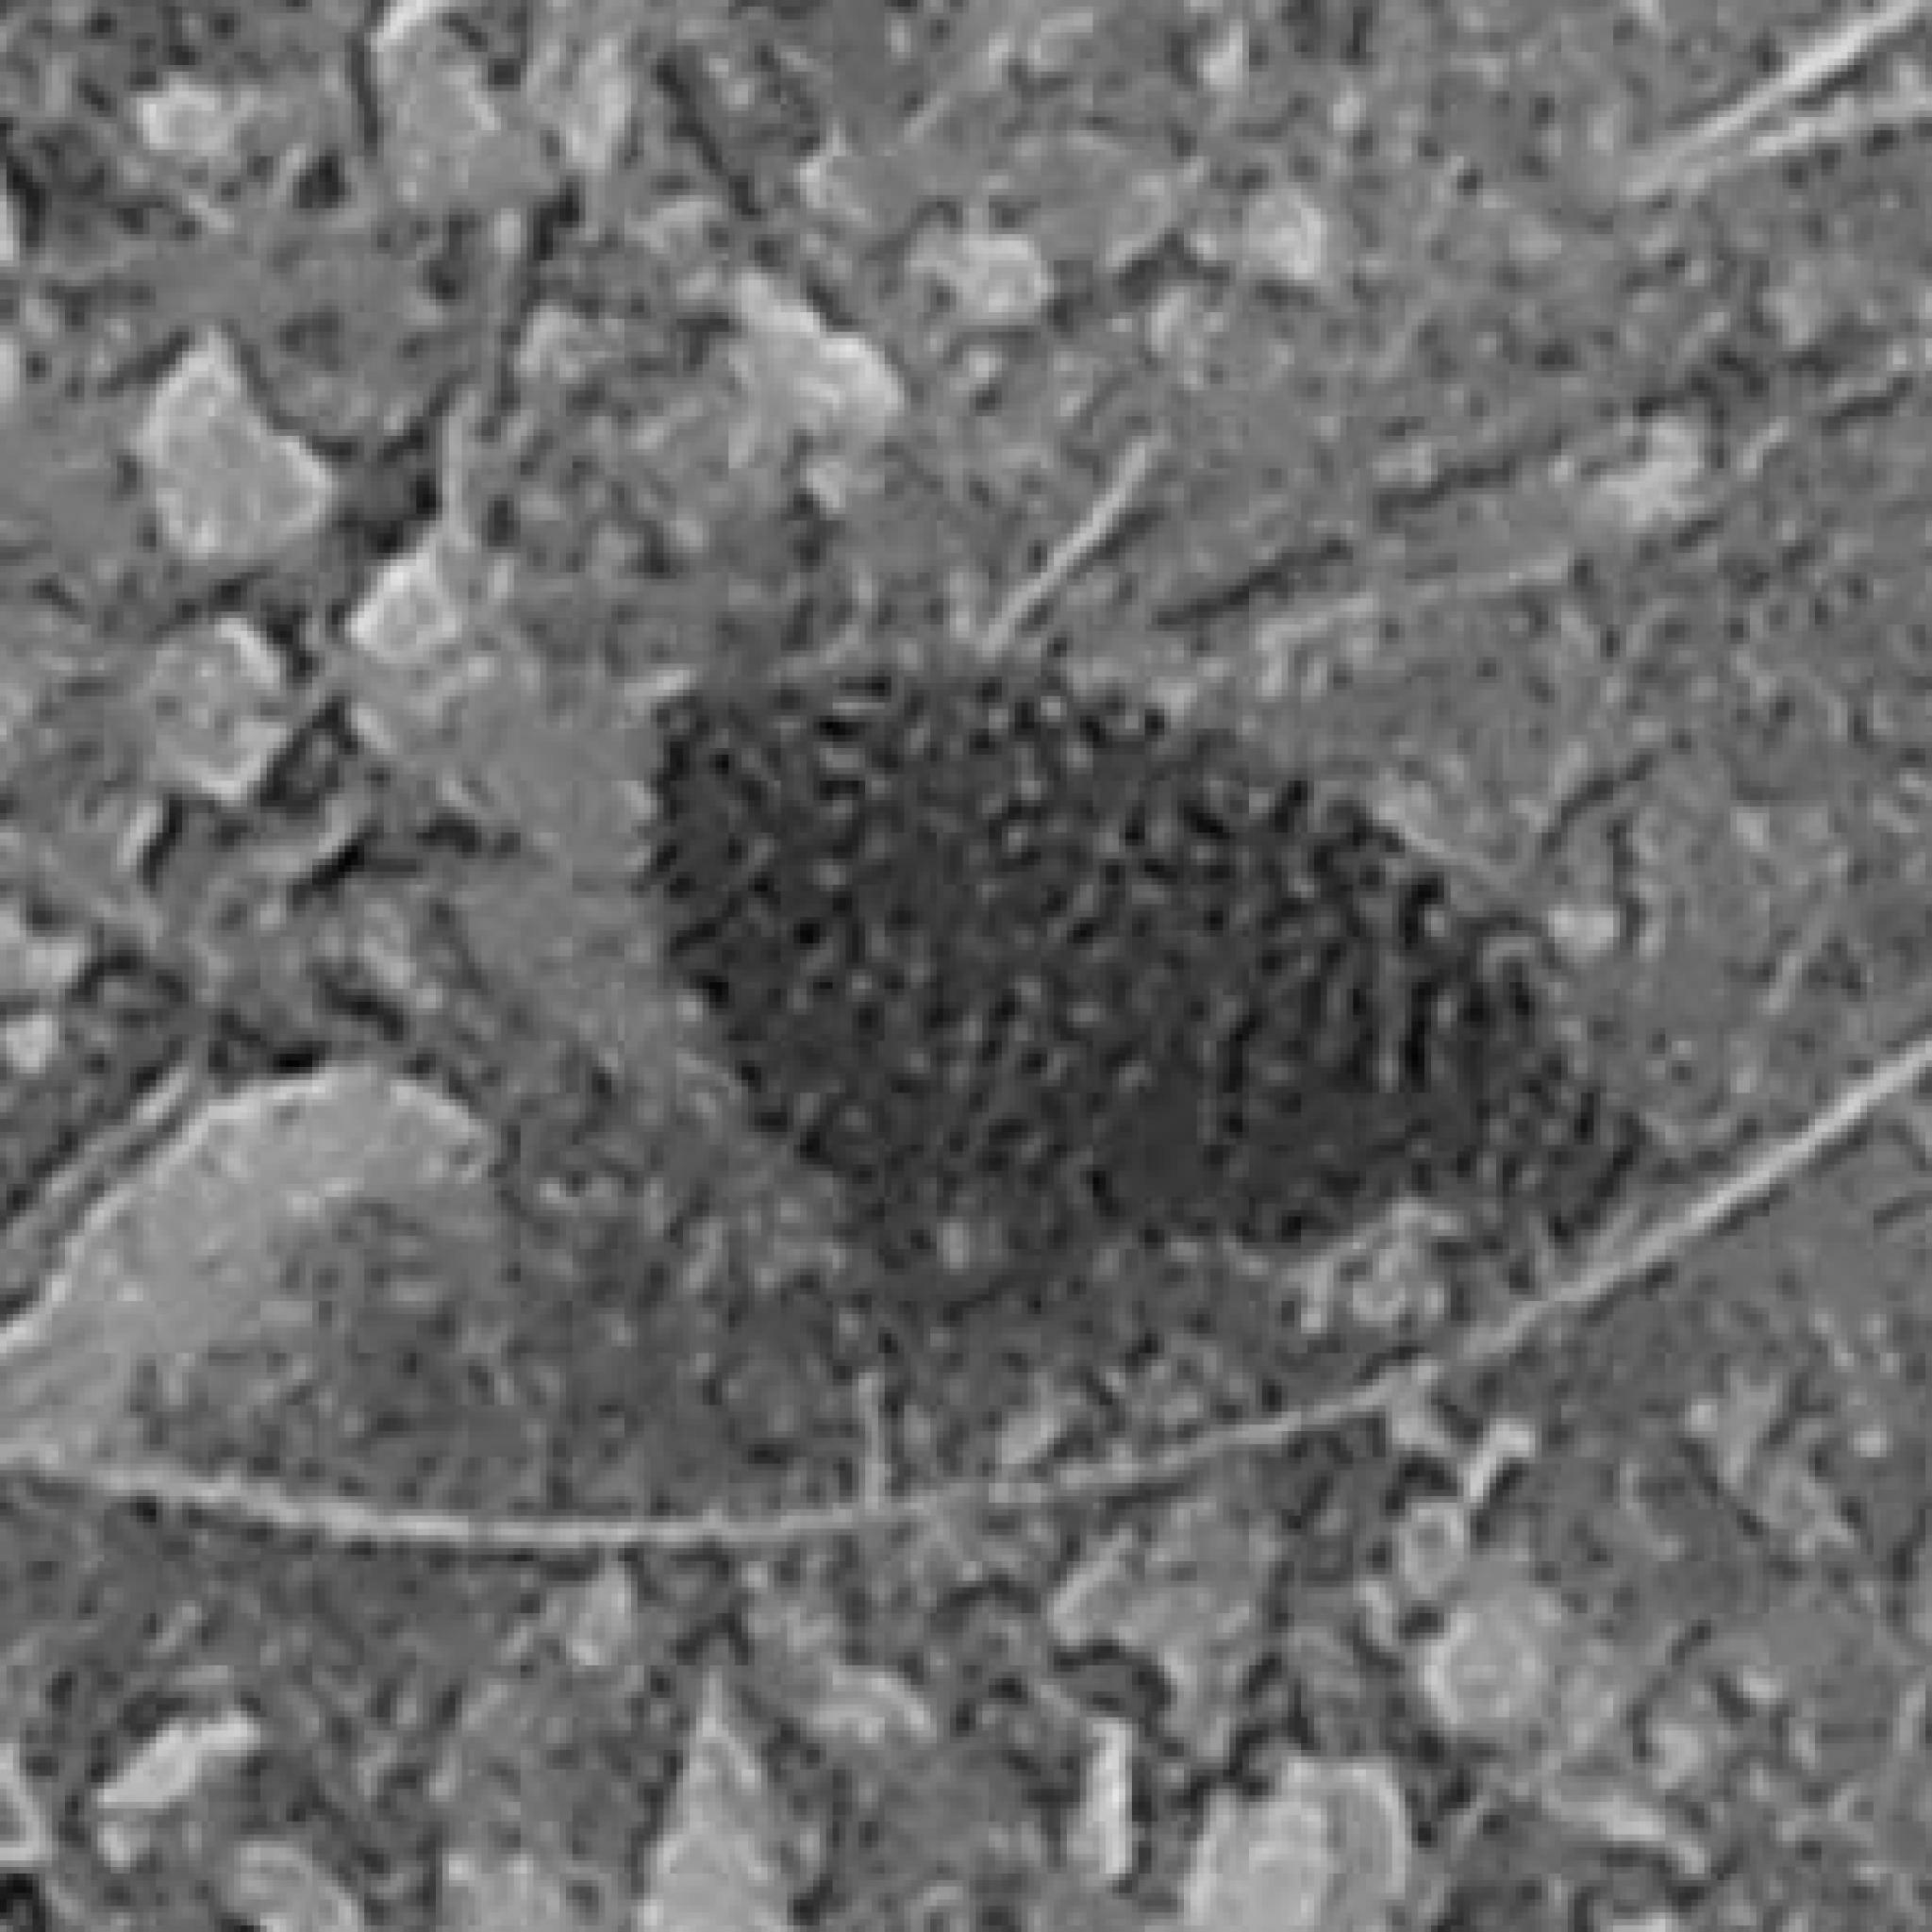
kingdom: Animalia
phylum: Chordata
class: Aves
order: Gruiformes
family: Rallidae
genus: Sarothrura
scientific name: Sarothrura elegans
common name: Buff-spotted flufftail
